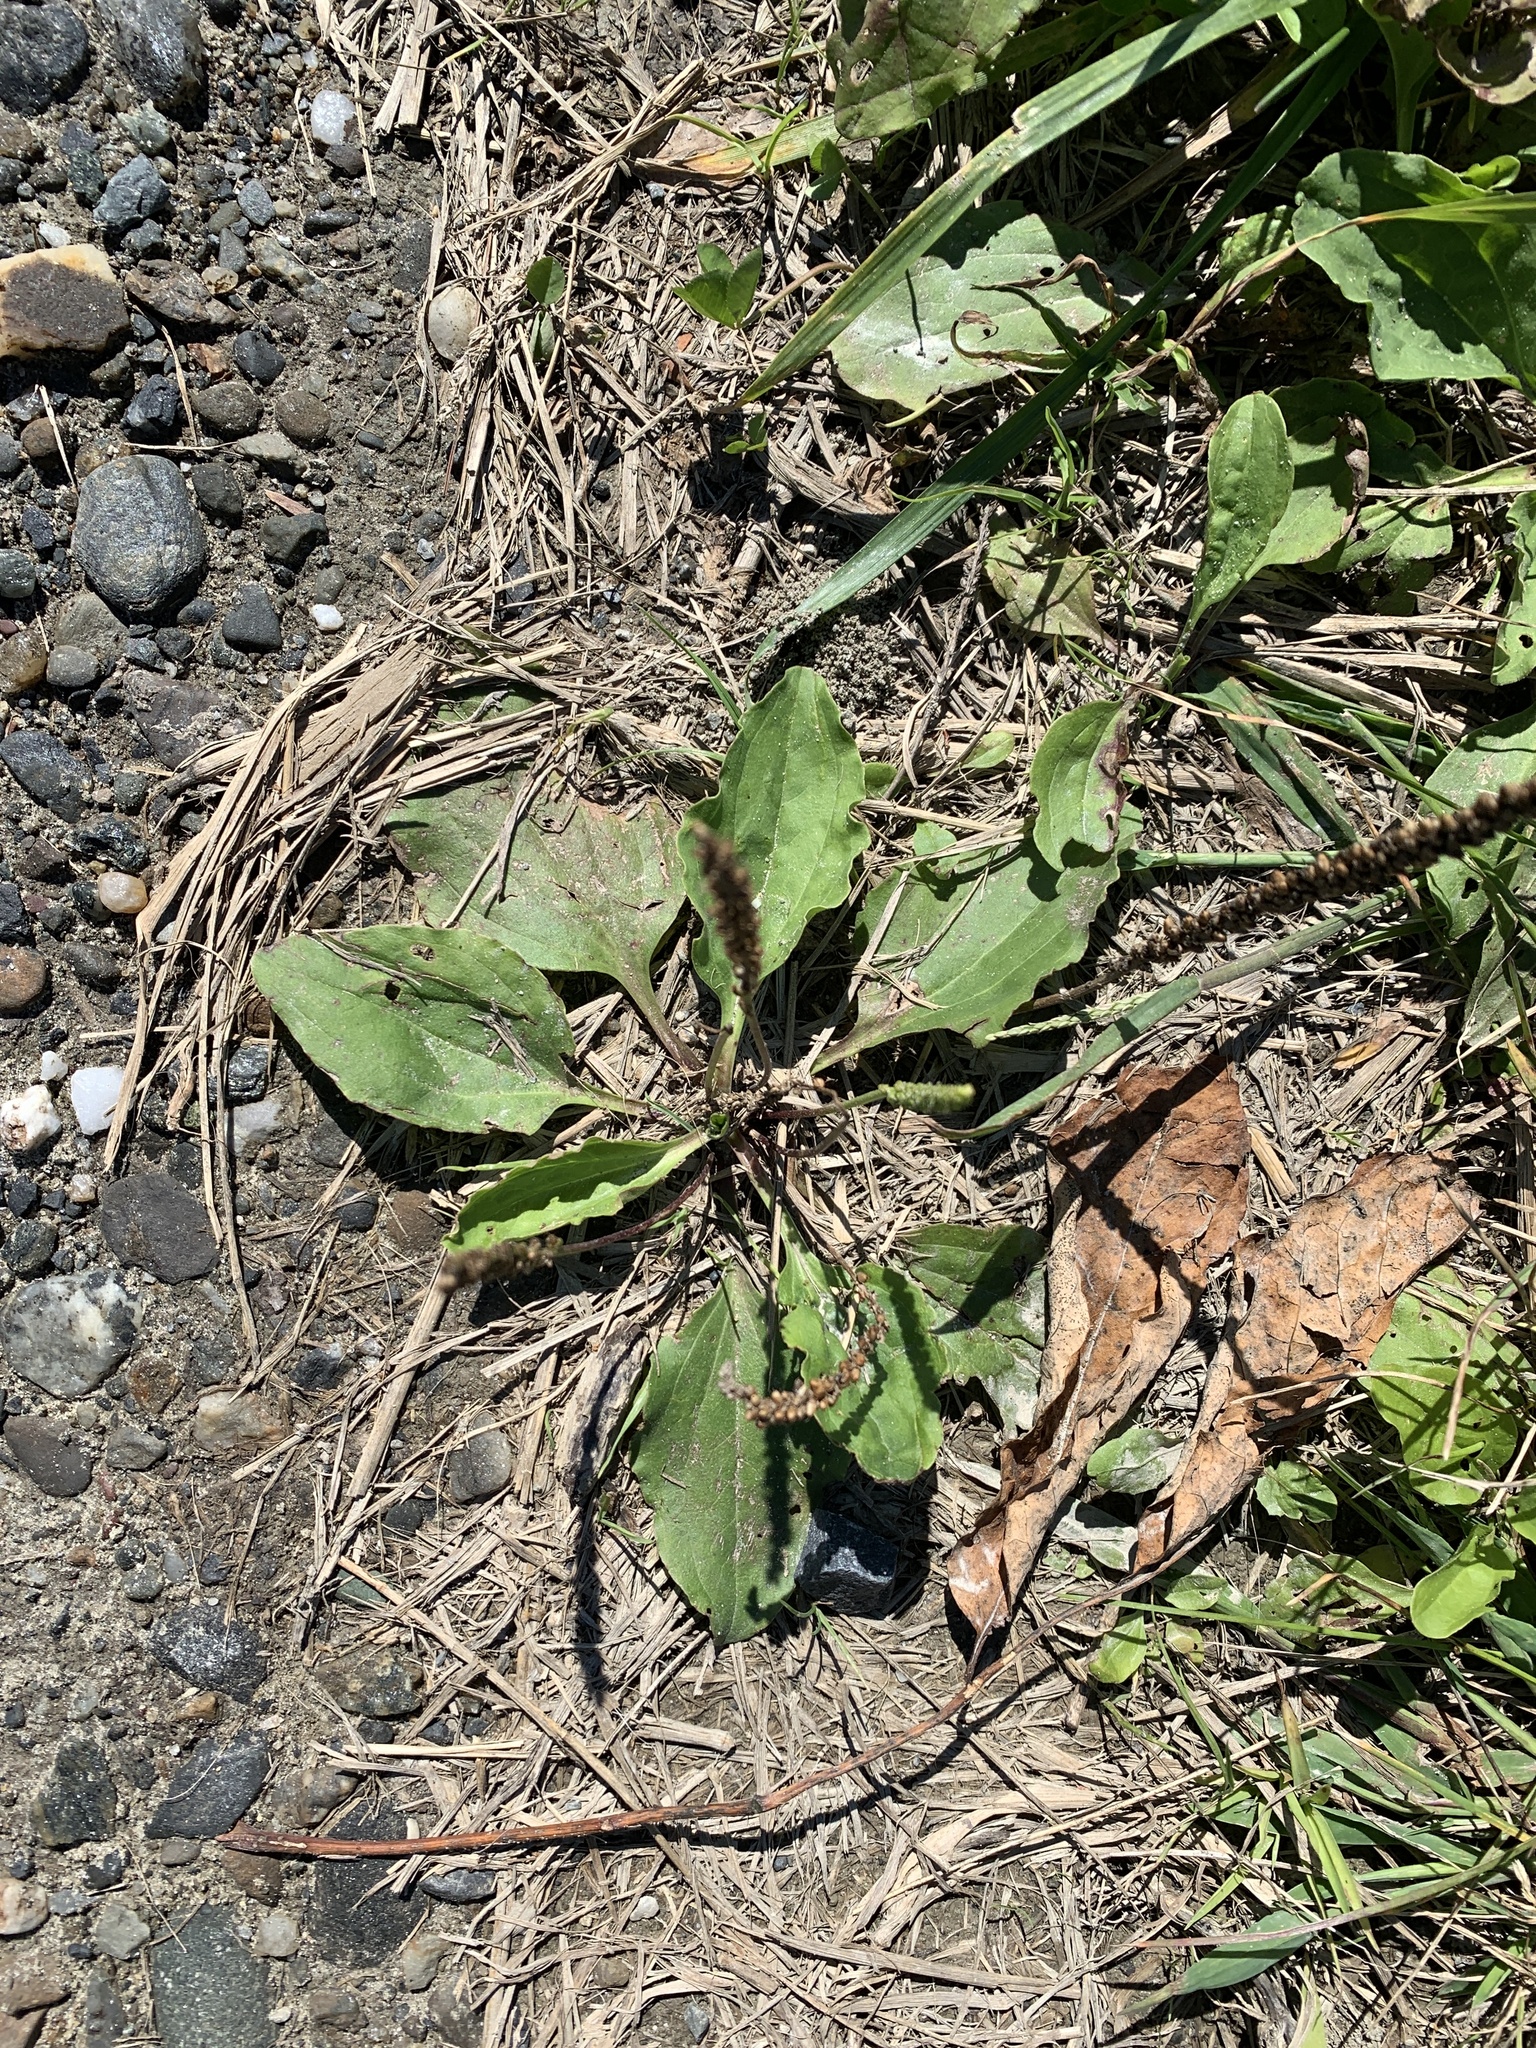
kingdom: Plantae
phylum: Tracheophyta
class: Magnoliopsida
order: Lamiales
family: Plantaginaceae
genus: Plantago
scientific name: Plantago major
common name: Common plantain
